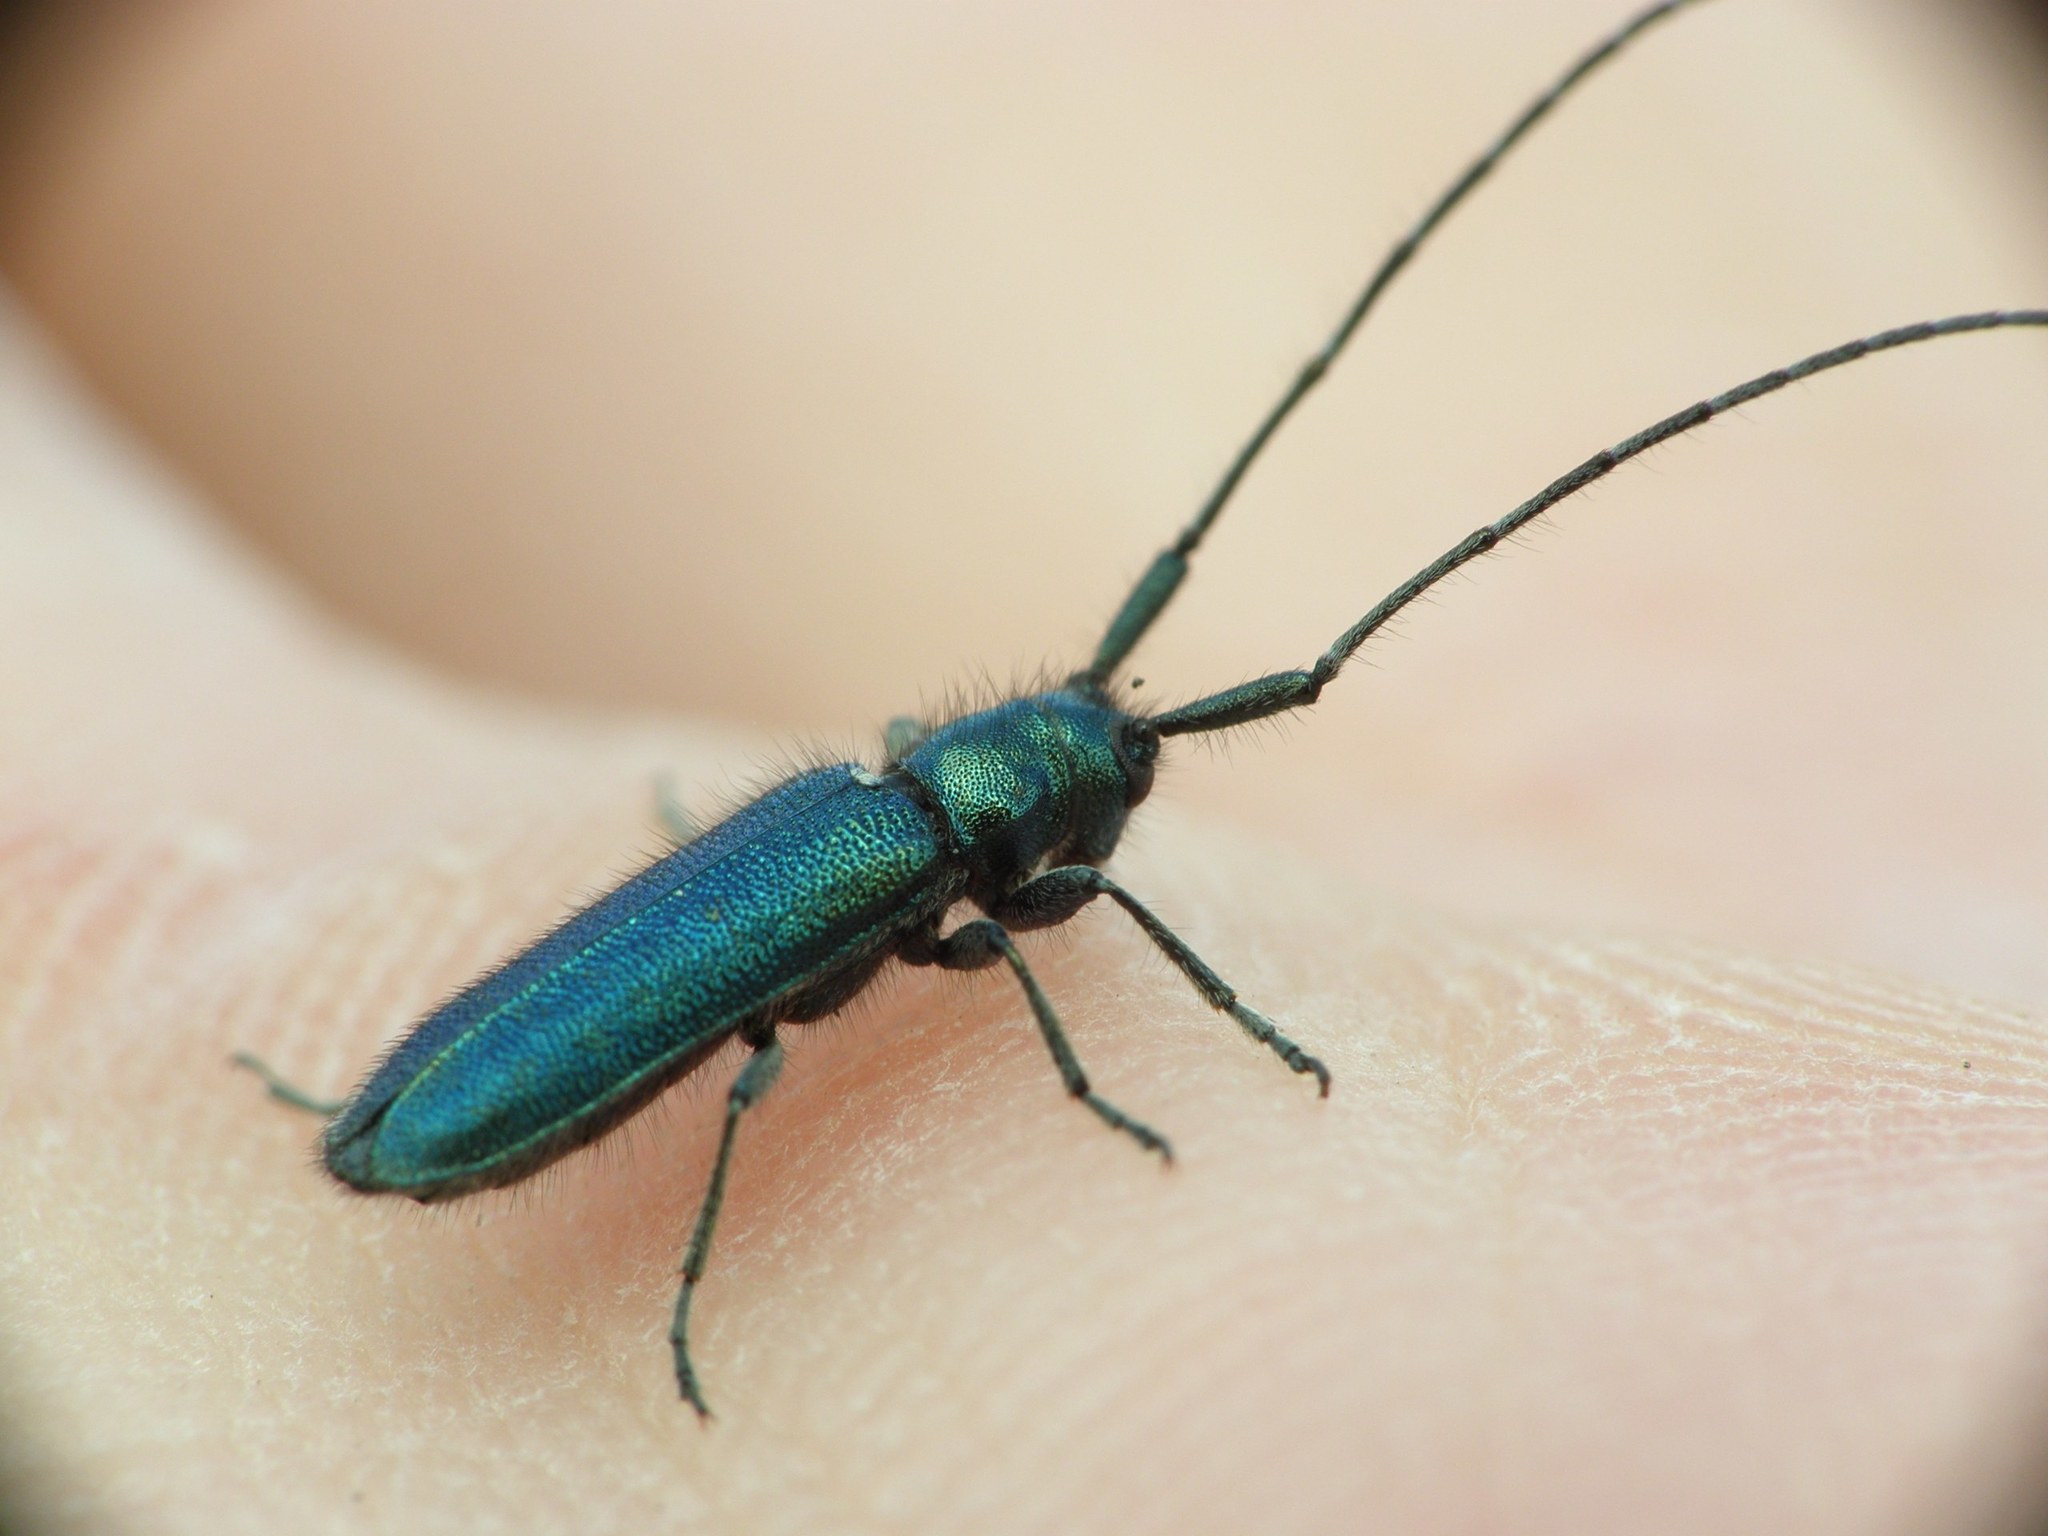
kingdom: Animalia
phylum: Arthropoda
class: Insecta
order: Coleoptera
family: Cerambycidae
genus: Agapanthia
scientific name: Agapanthia violacea
